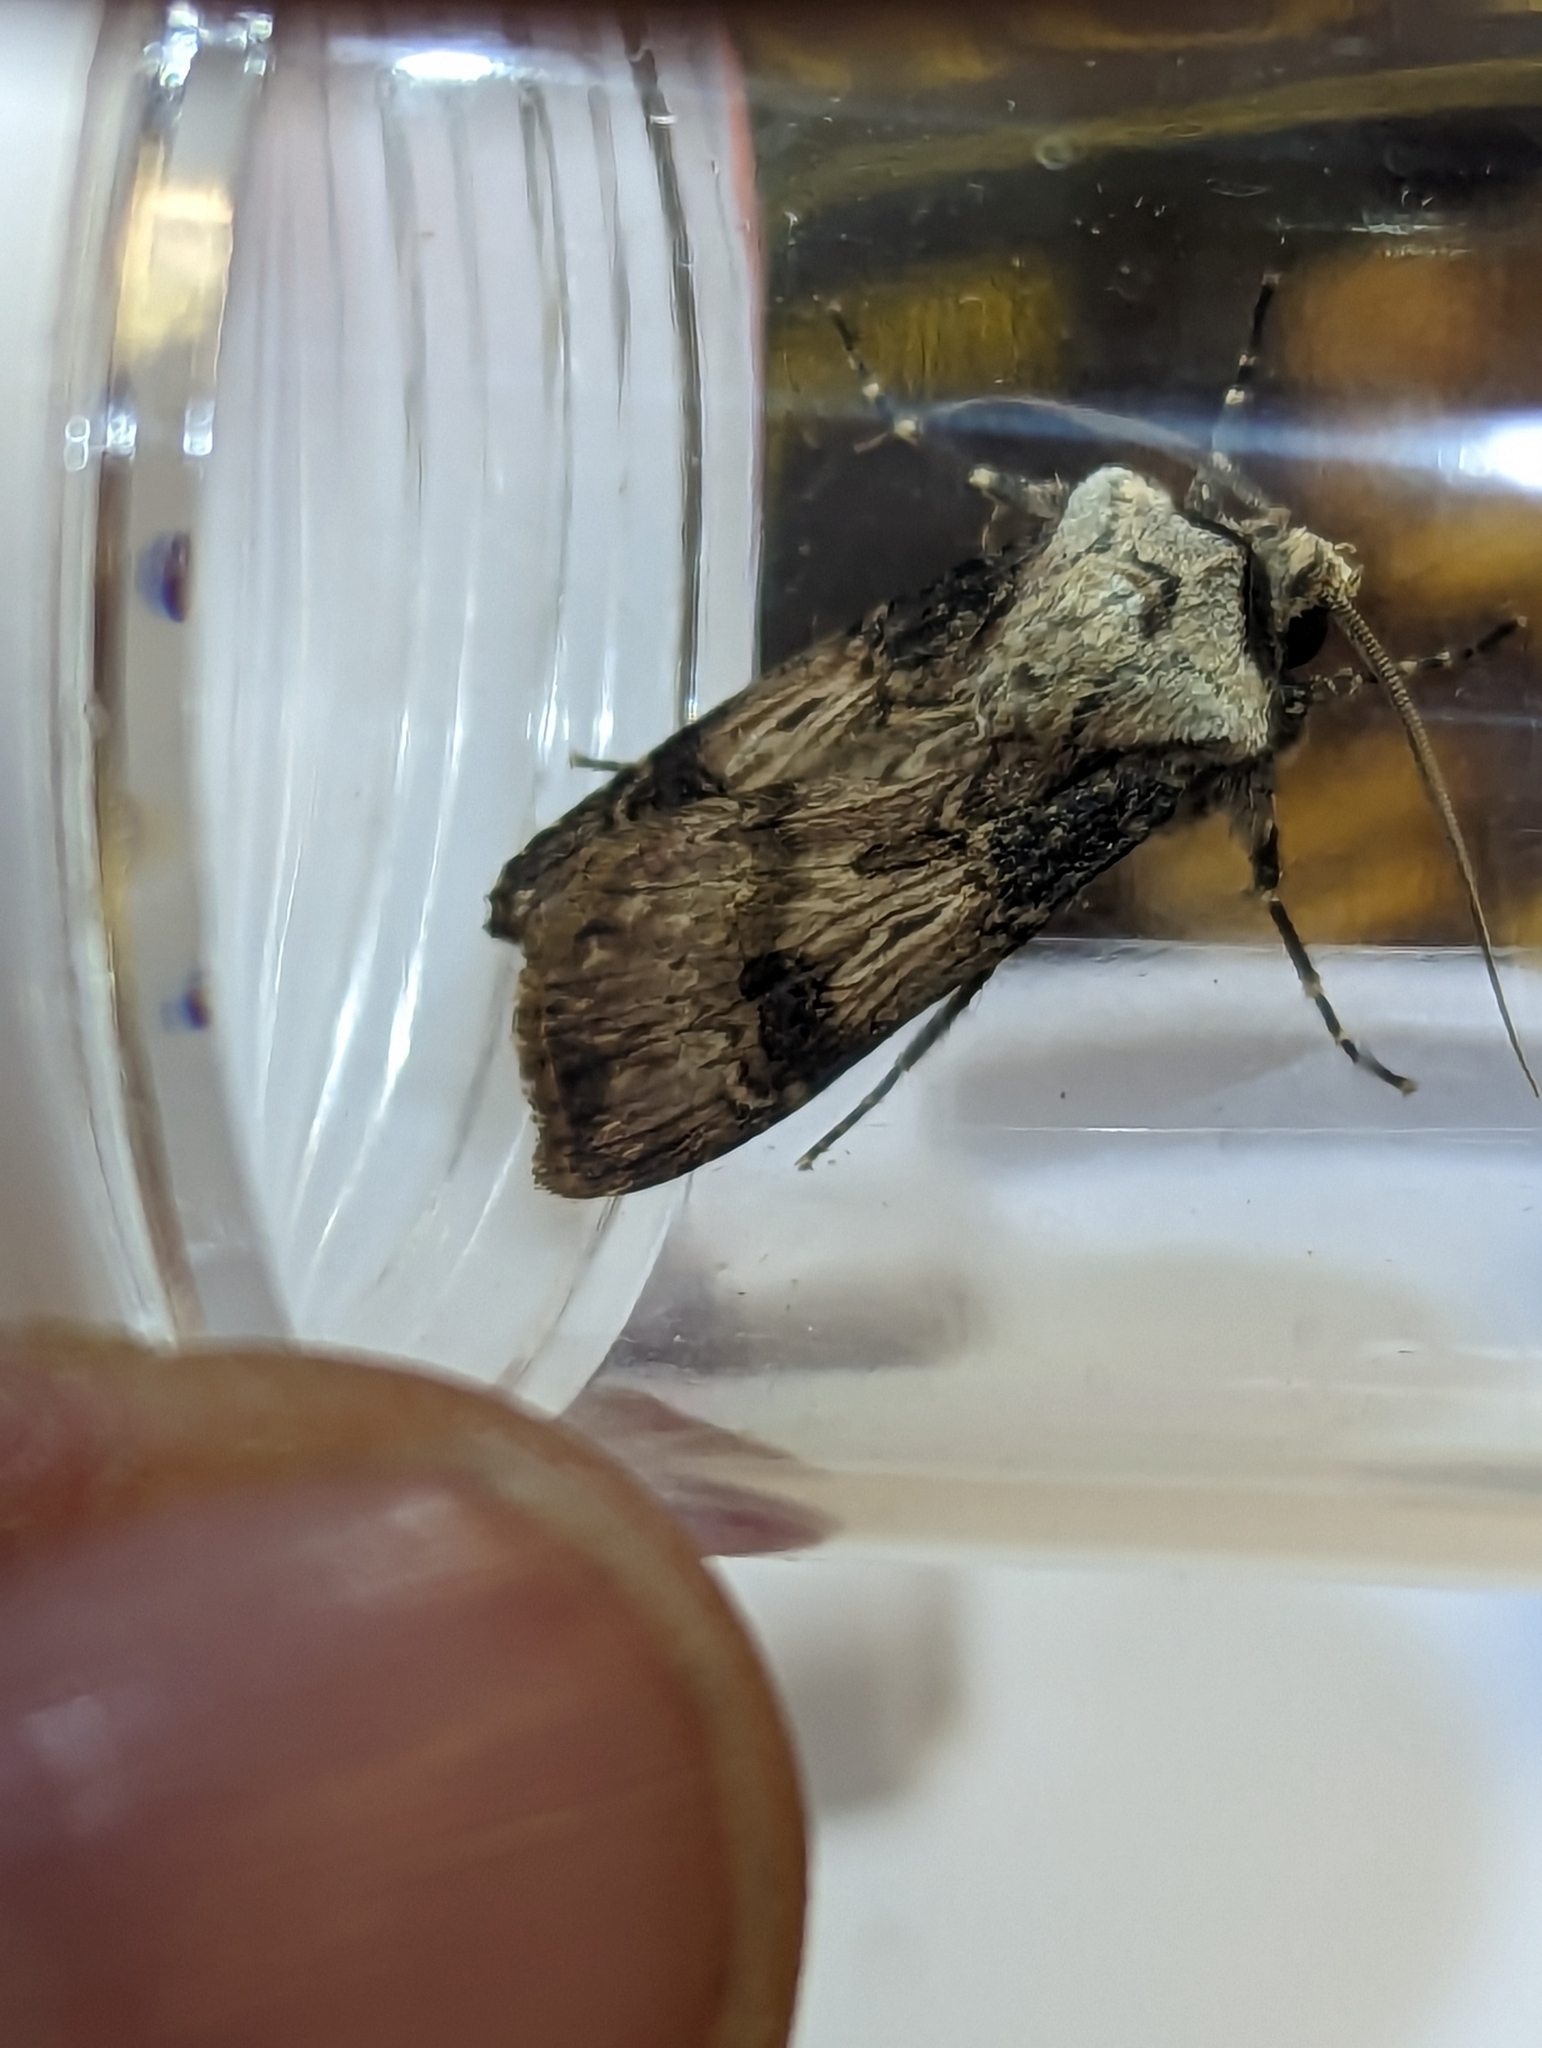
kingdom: Animalia
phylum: Arthropoda
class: Insecta
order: Lepidoptera
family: Noctuidae
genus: Agrotis
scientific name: Agrotis puta
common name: Shuttle-shaped dart
